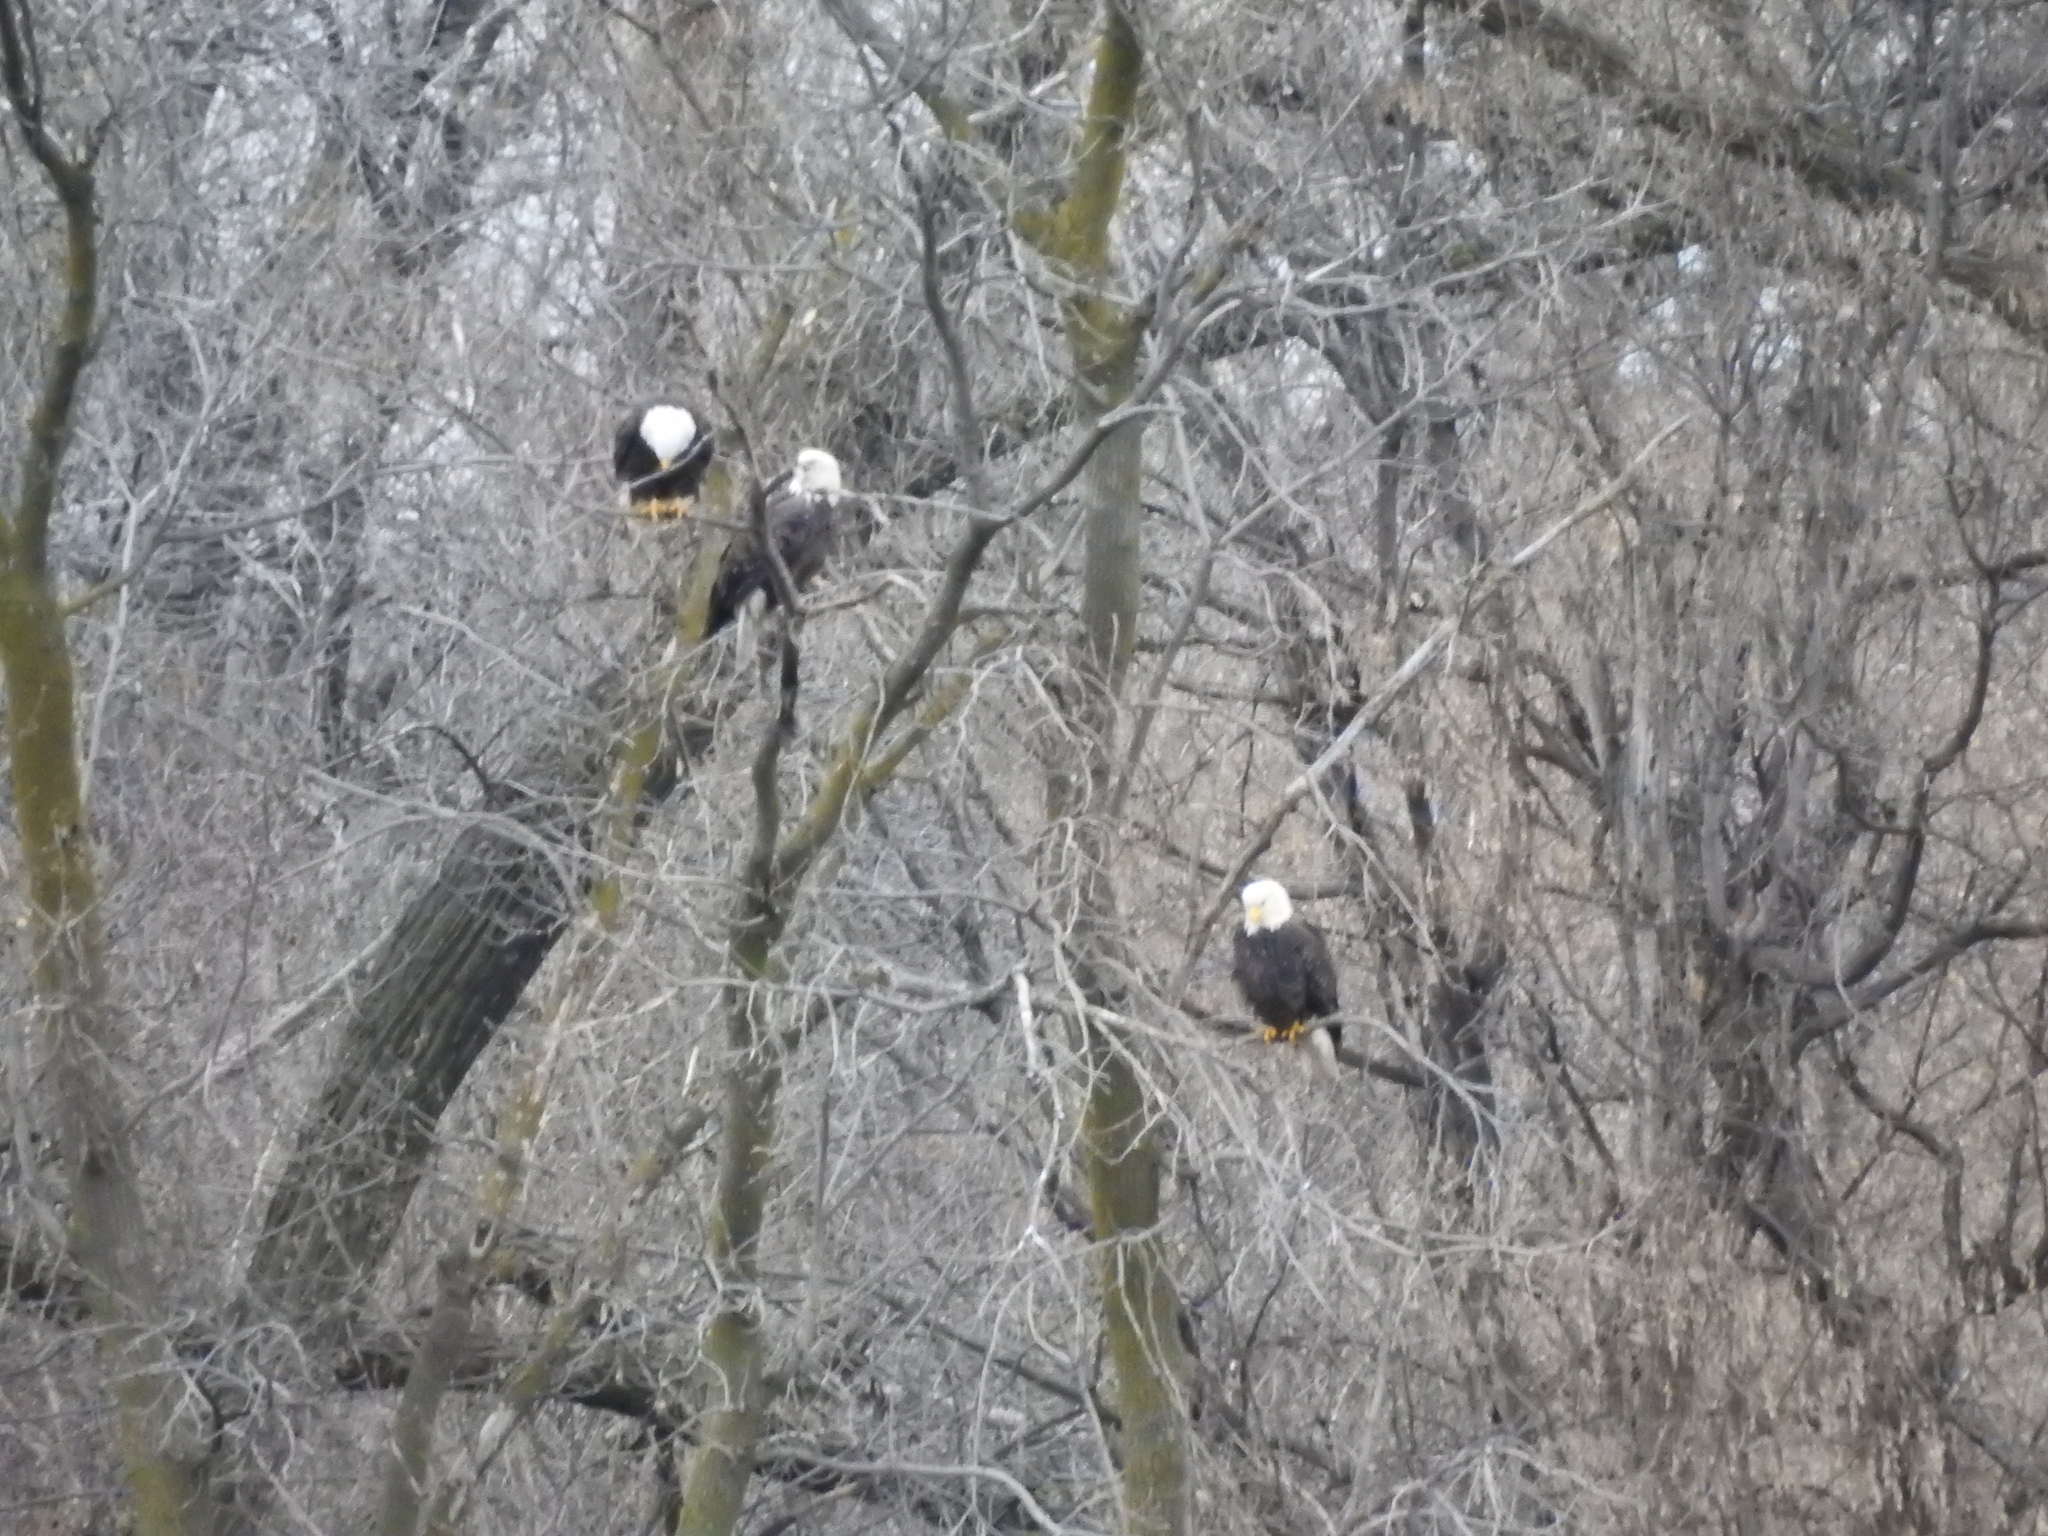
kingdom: Animalia
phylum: Chordata
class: Aves
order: Accipitriformes
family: Accipitridae
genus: Haliaeetus
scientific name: Haliaeetus leucocephalus
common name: Bald eagle
